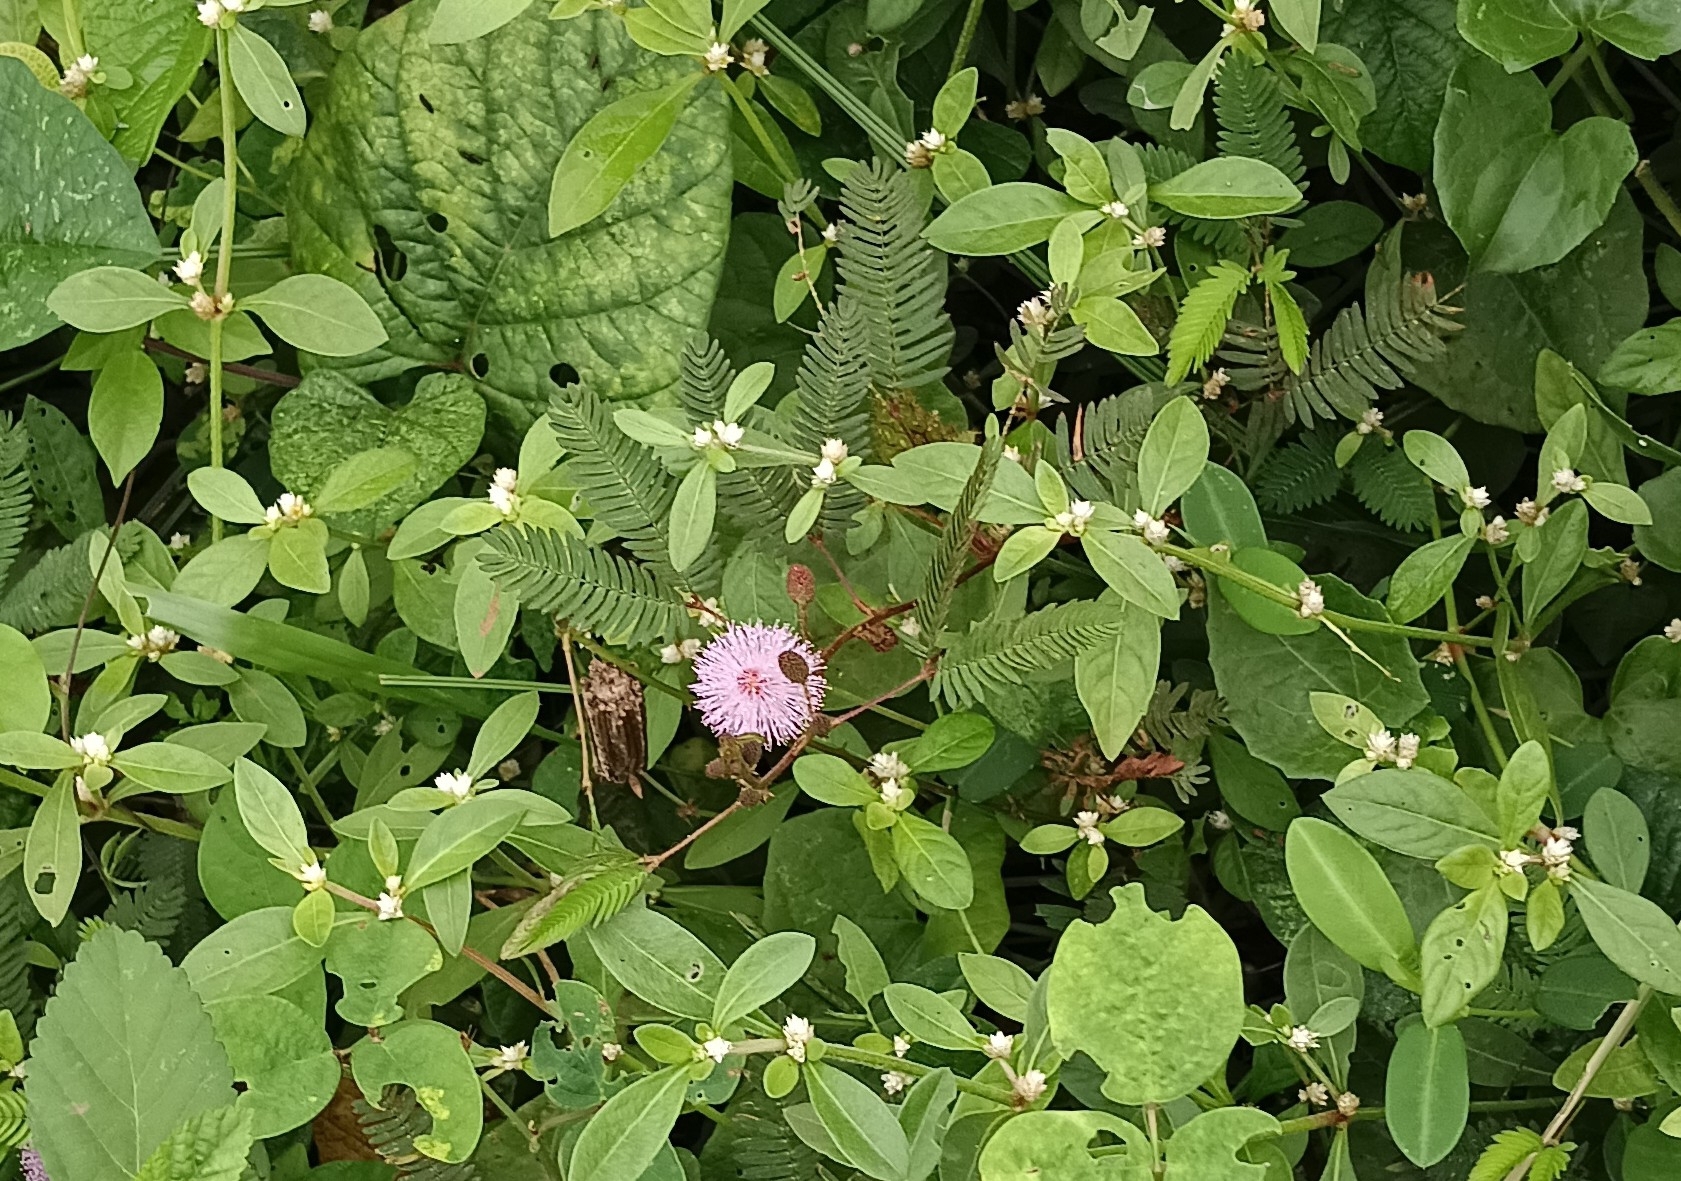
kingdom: Plantae
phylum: Tracheophyta
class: Magnoliopsida
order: Fabales
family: Fabaceae
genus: Mimosa
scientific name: Mimosa pudica
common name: Sensitive plant
